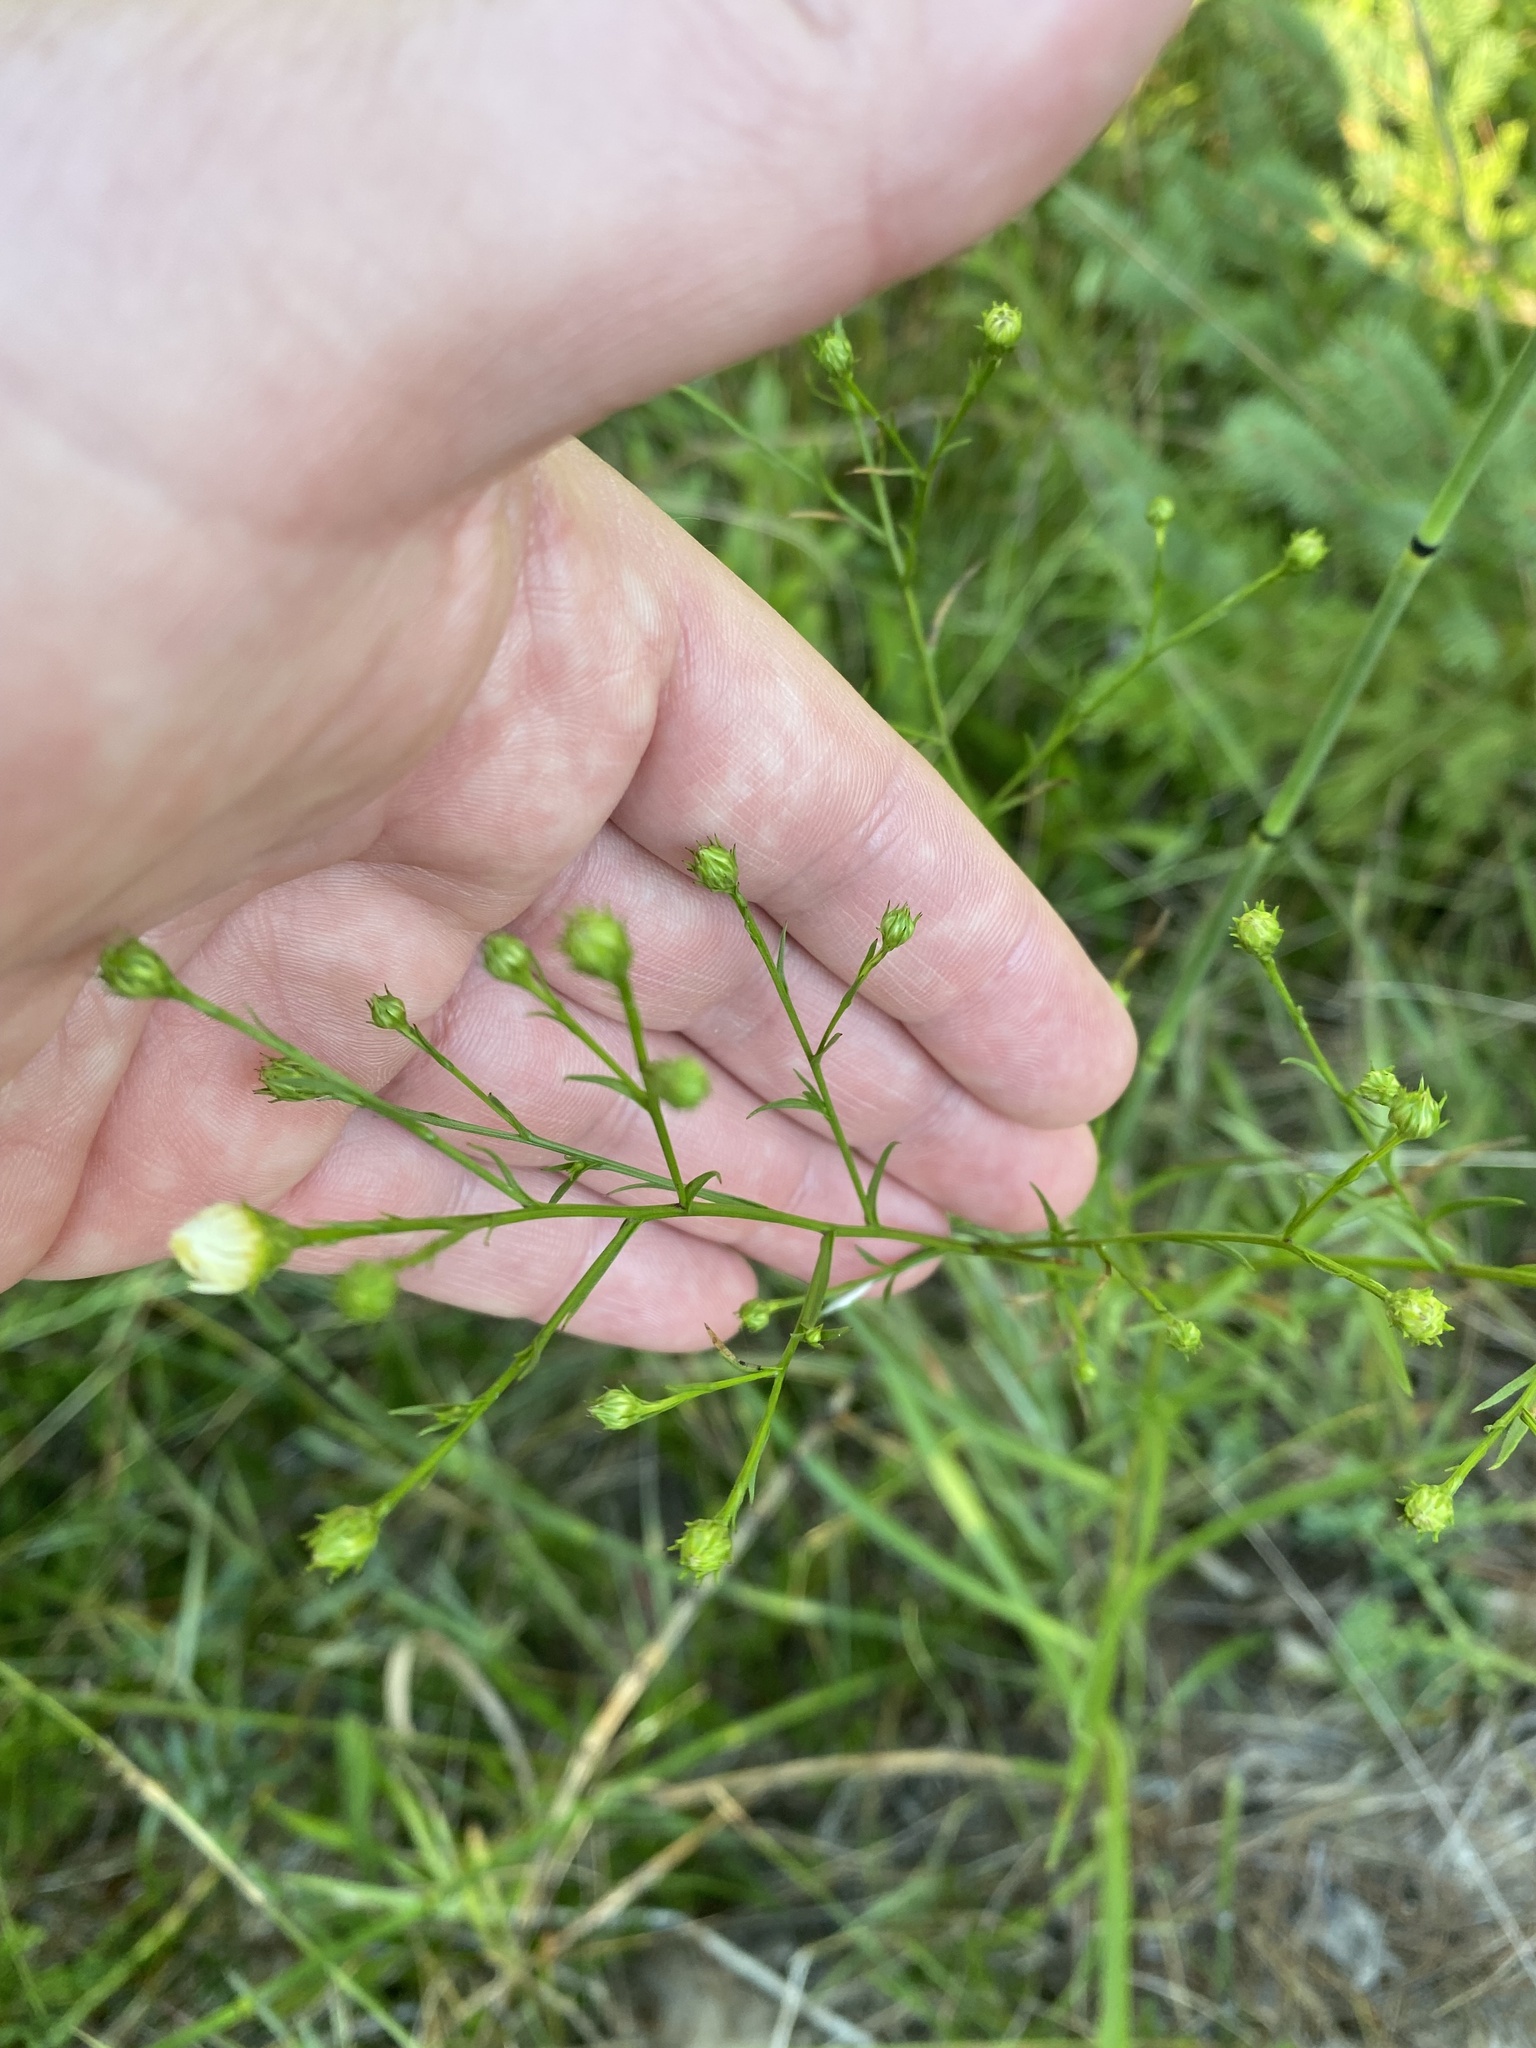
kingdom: Plantae
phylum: Tracheophyta
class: Magnoliopsida
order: Asterales
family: Asteraceae
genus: Symphyotrichum
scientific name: Symphyotrichum pilosum
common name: Awl aster
